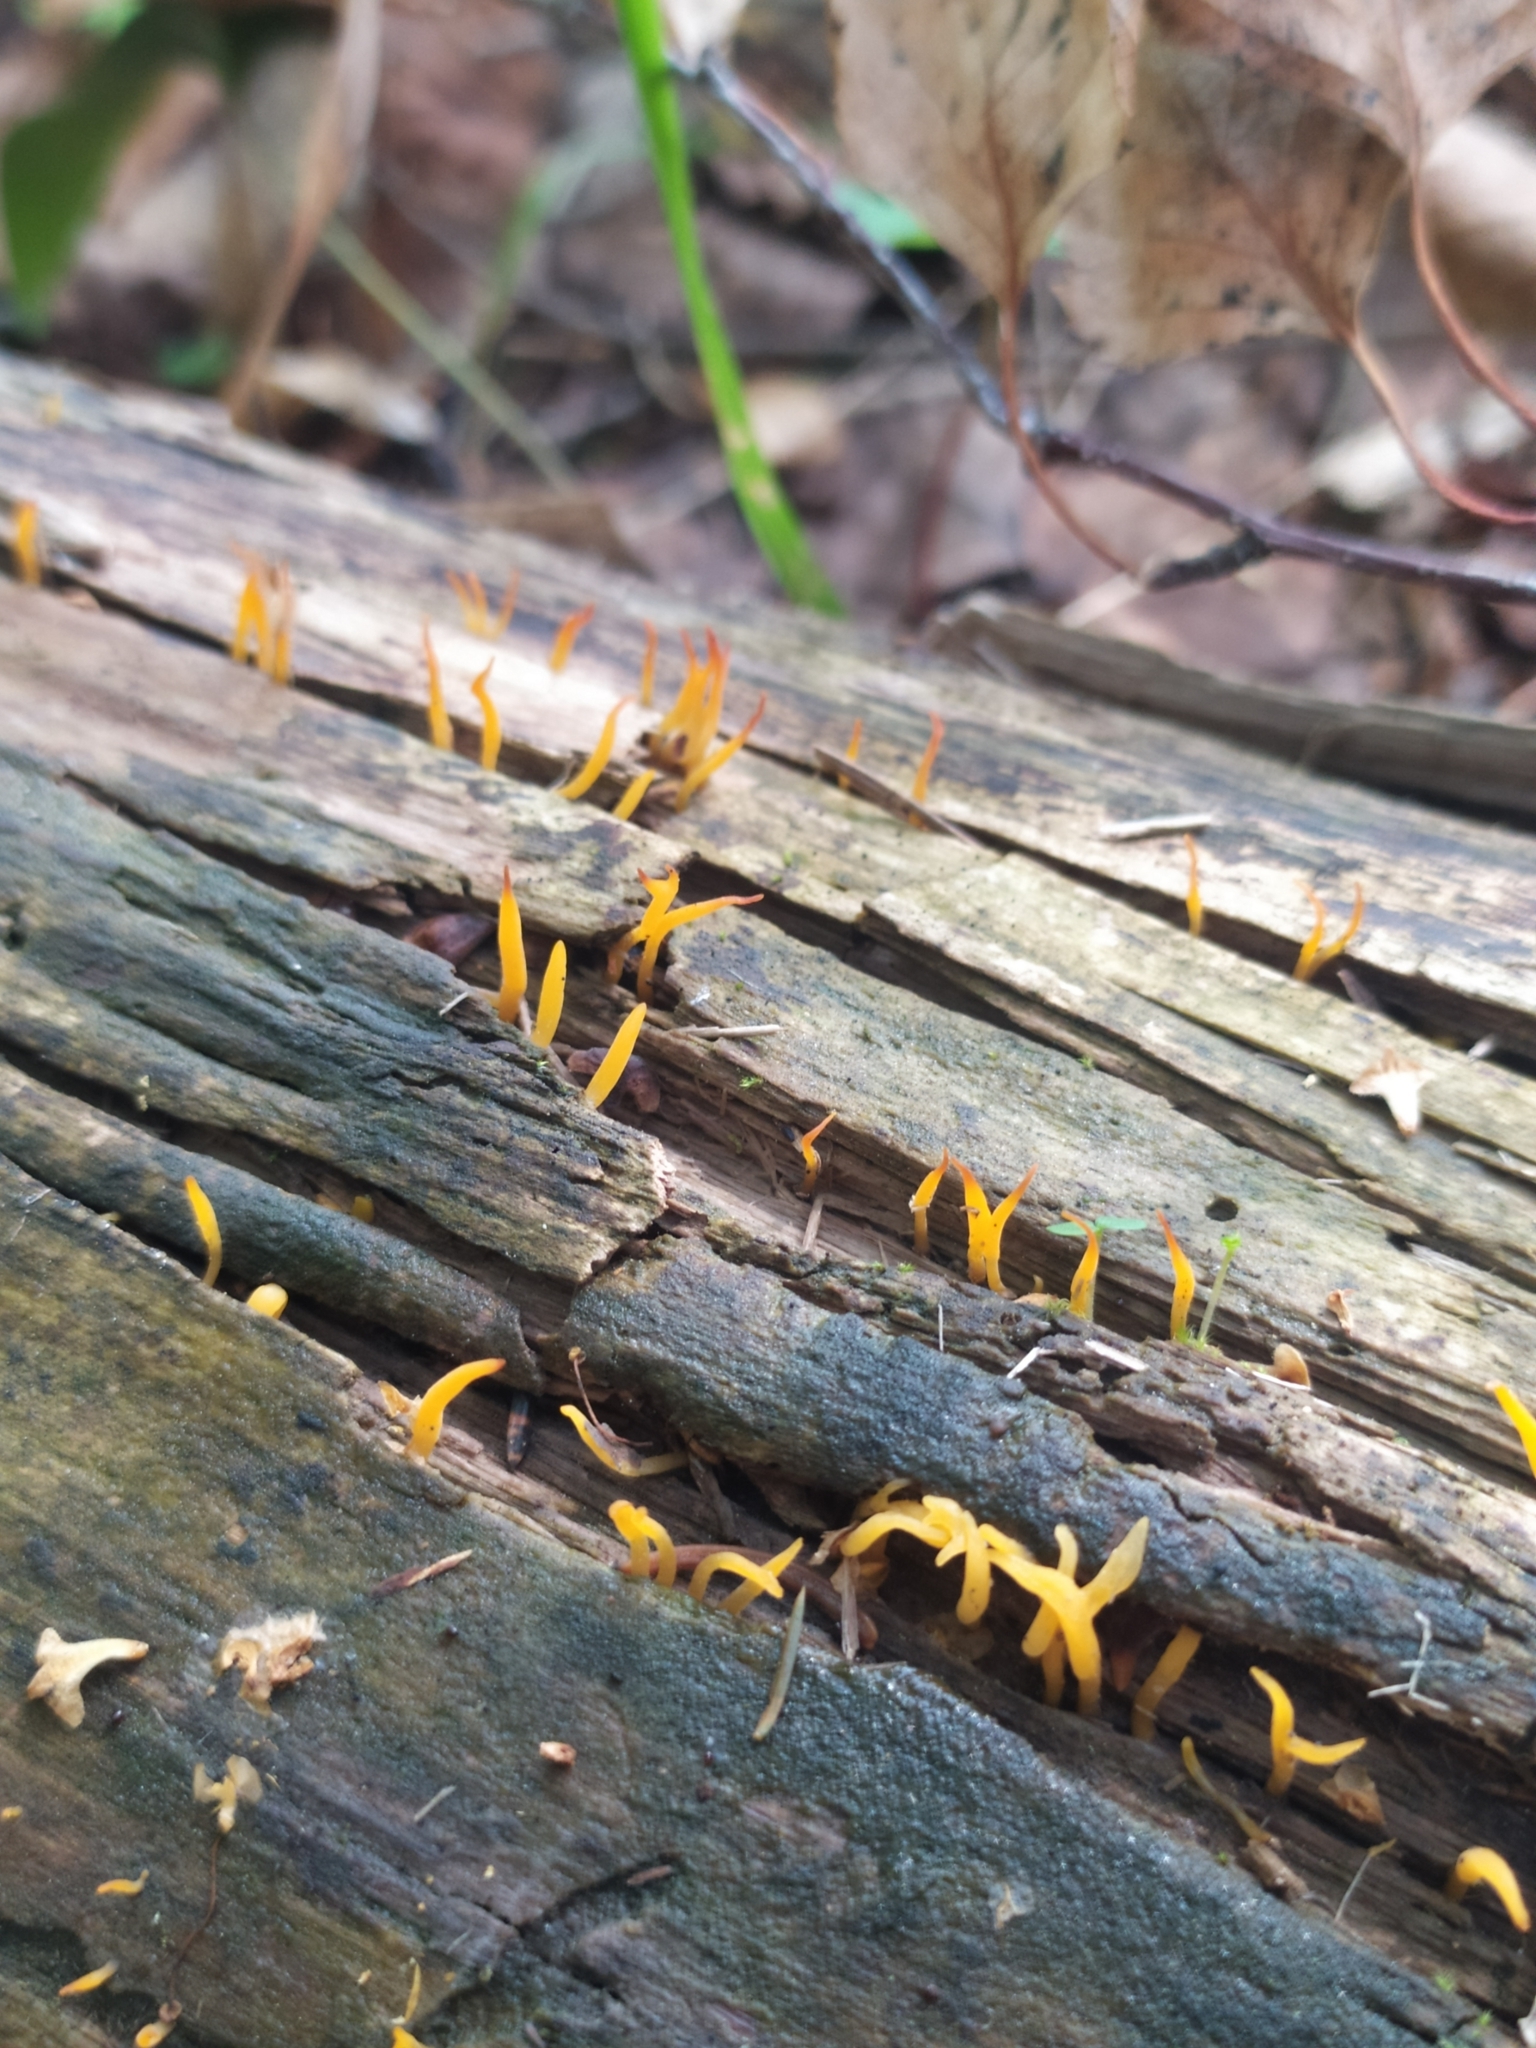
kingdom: Fungi
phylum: Basidiomycota
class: Dacrymycetes
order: Dacrymycetales
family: Dacrymycetaceae
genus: Calocera
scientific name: Calocera cornea
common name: Small stagshorn
